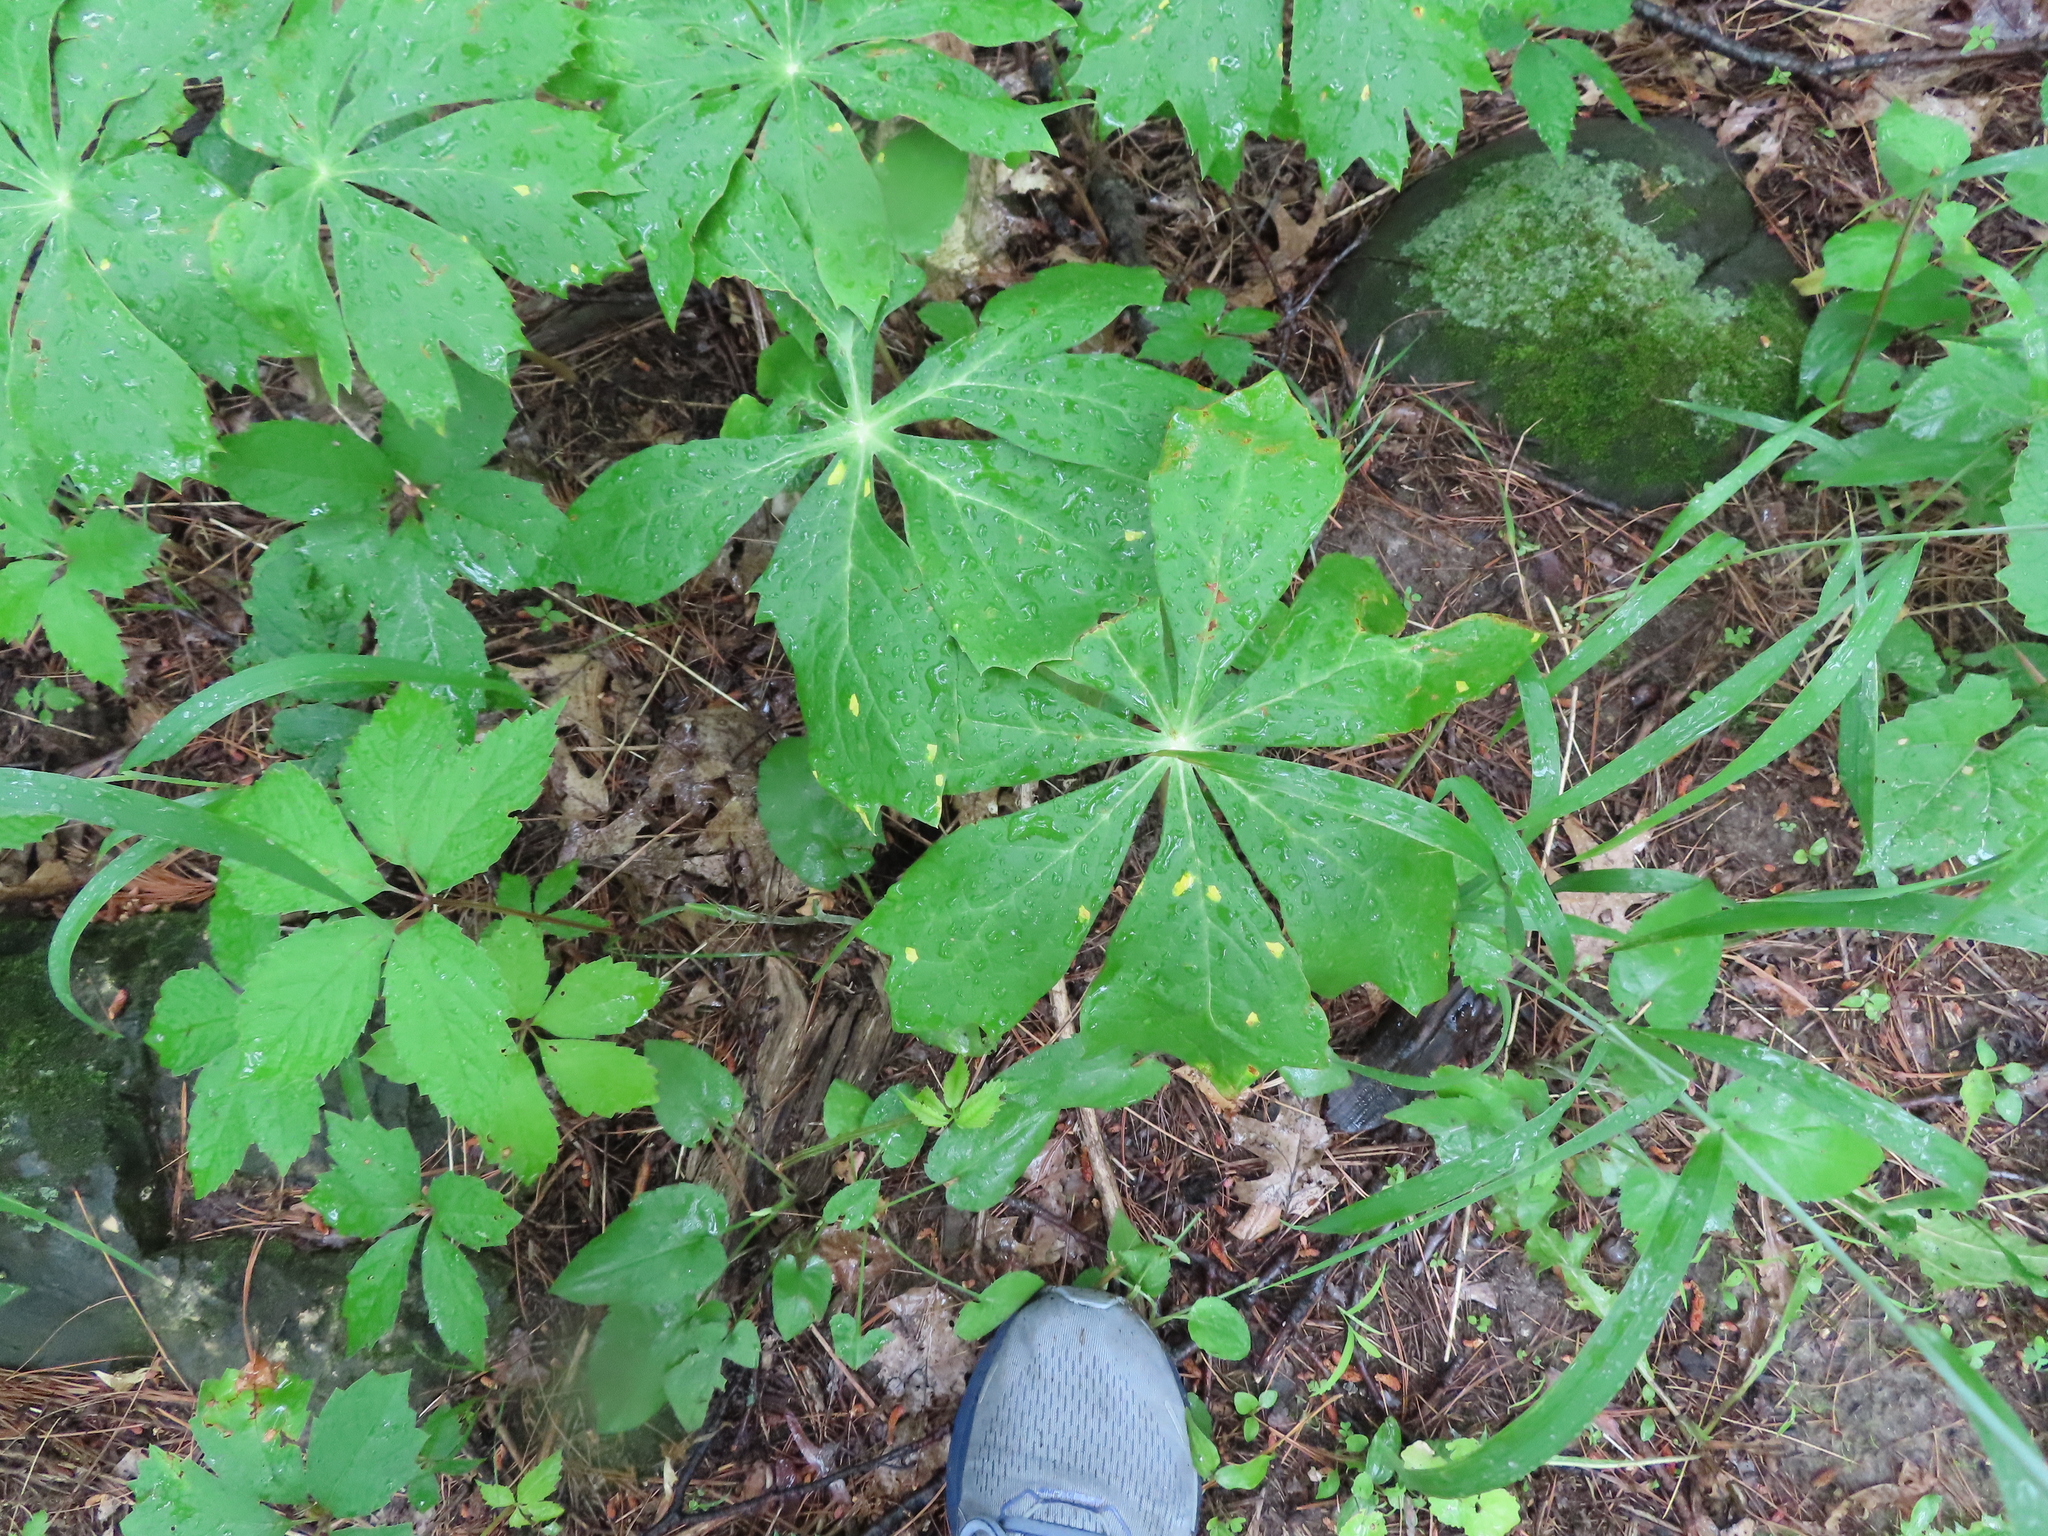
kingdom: Plantae
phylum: Tracheophyta
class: Magnoliopsida
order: Ranunculales
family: Berberidaceae
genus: Podophyllum
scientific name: Podophyllum peltatum
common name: Wild mandrake
